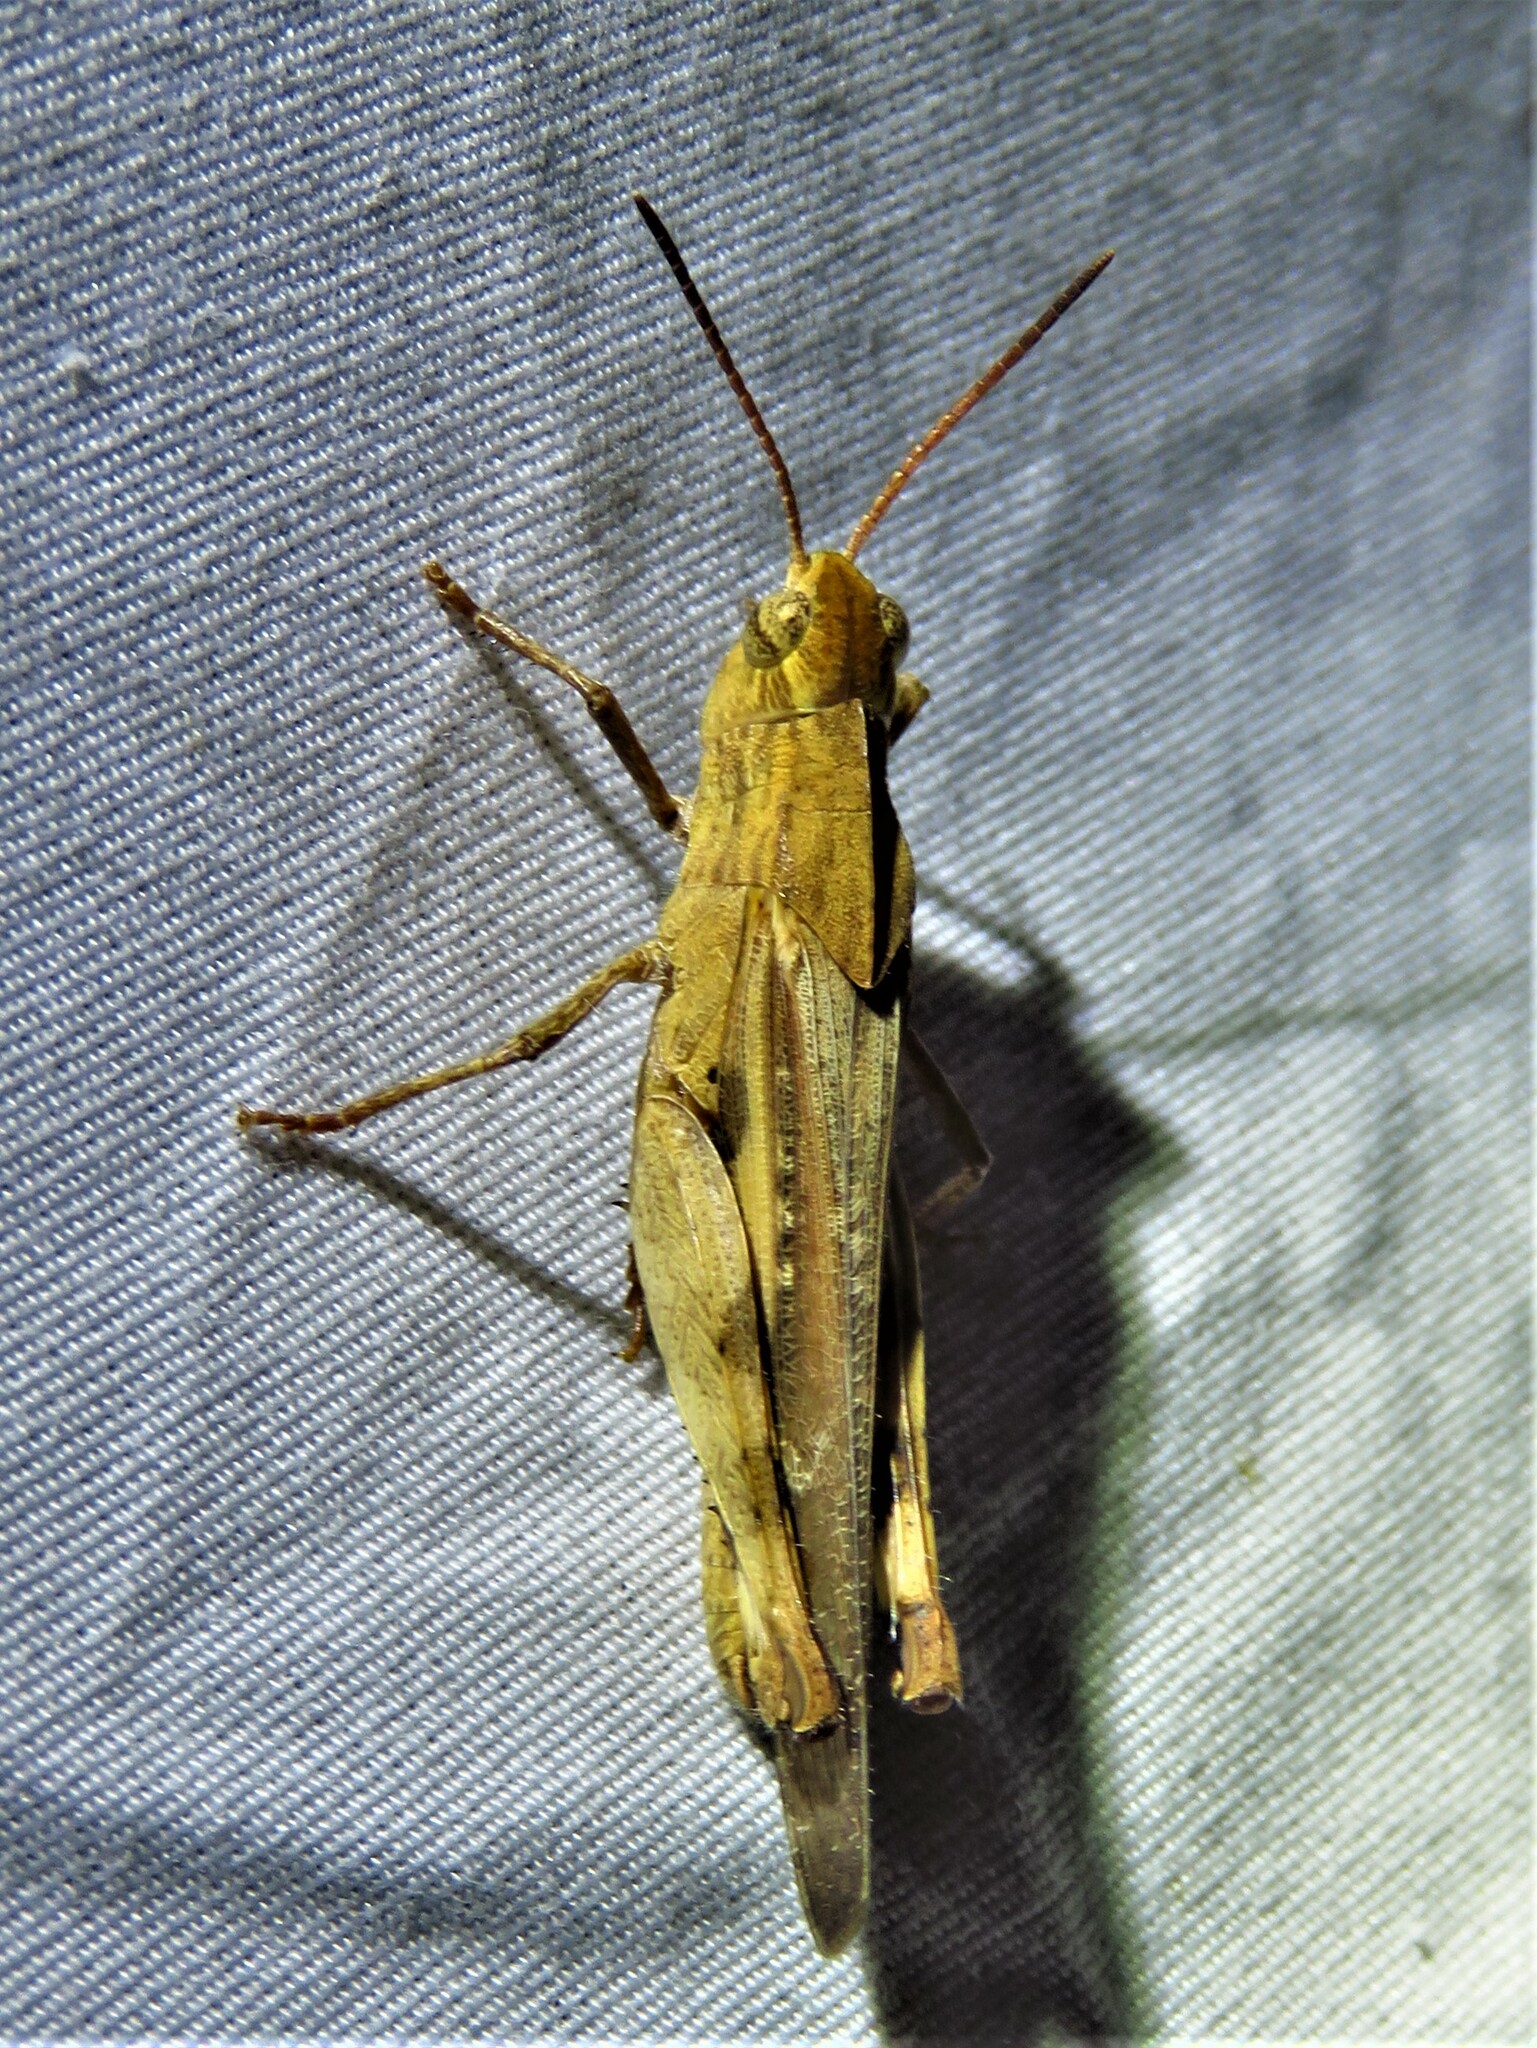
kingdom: Animalia
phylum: Arthropoda
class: Insecta
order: Orthoptera
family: Acrididae
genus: Chortophaga
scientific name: Chortophaga viridifasciata
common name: Green-striped grasshopper
